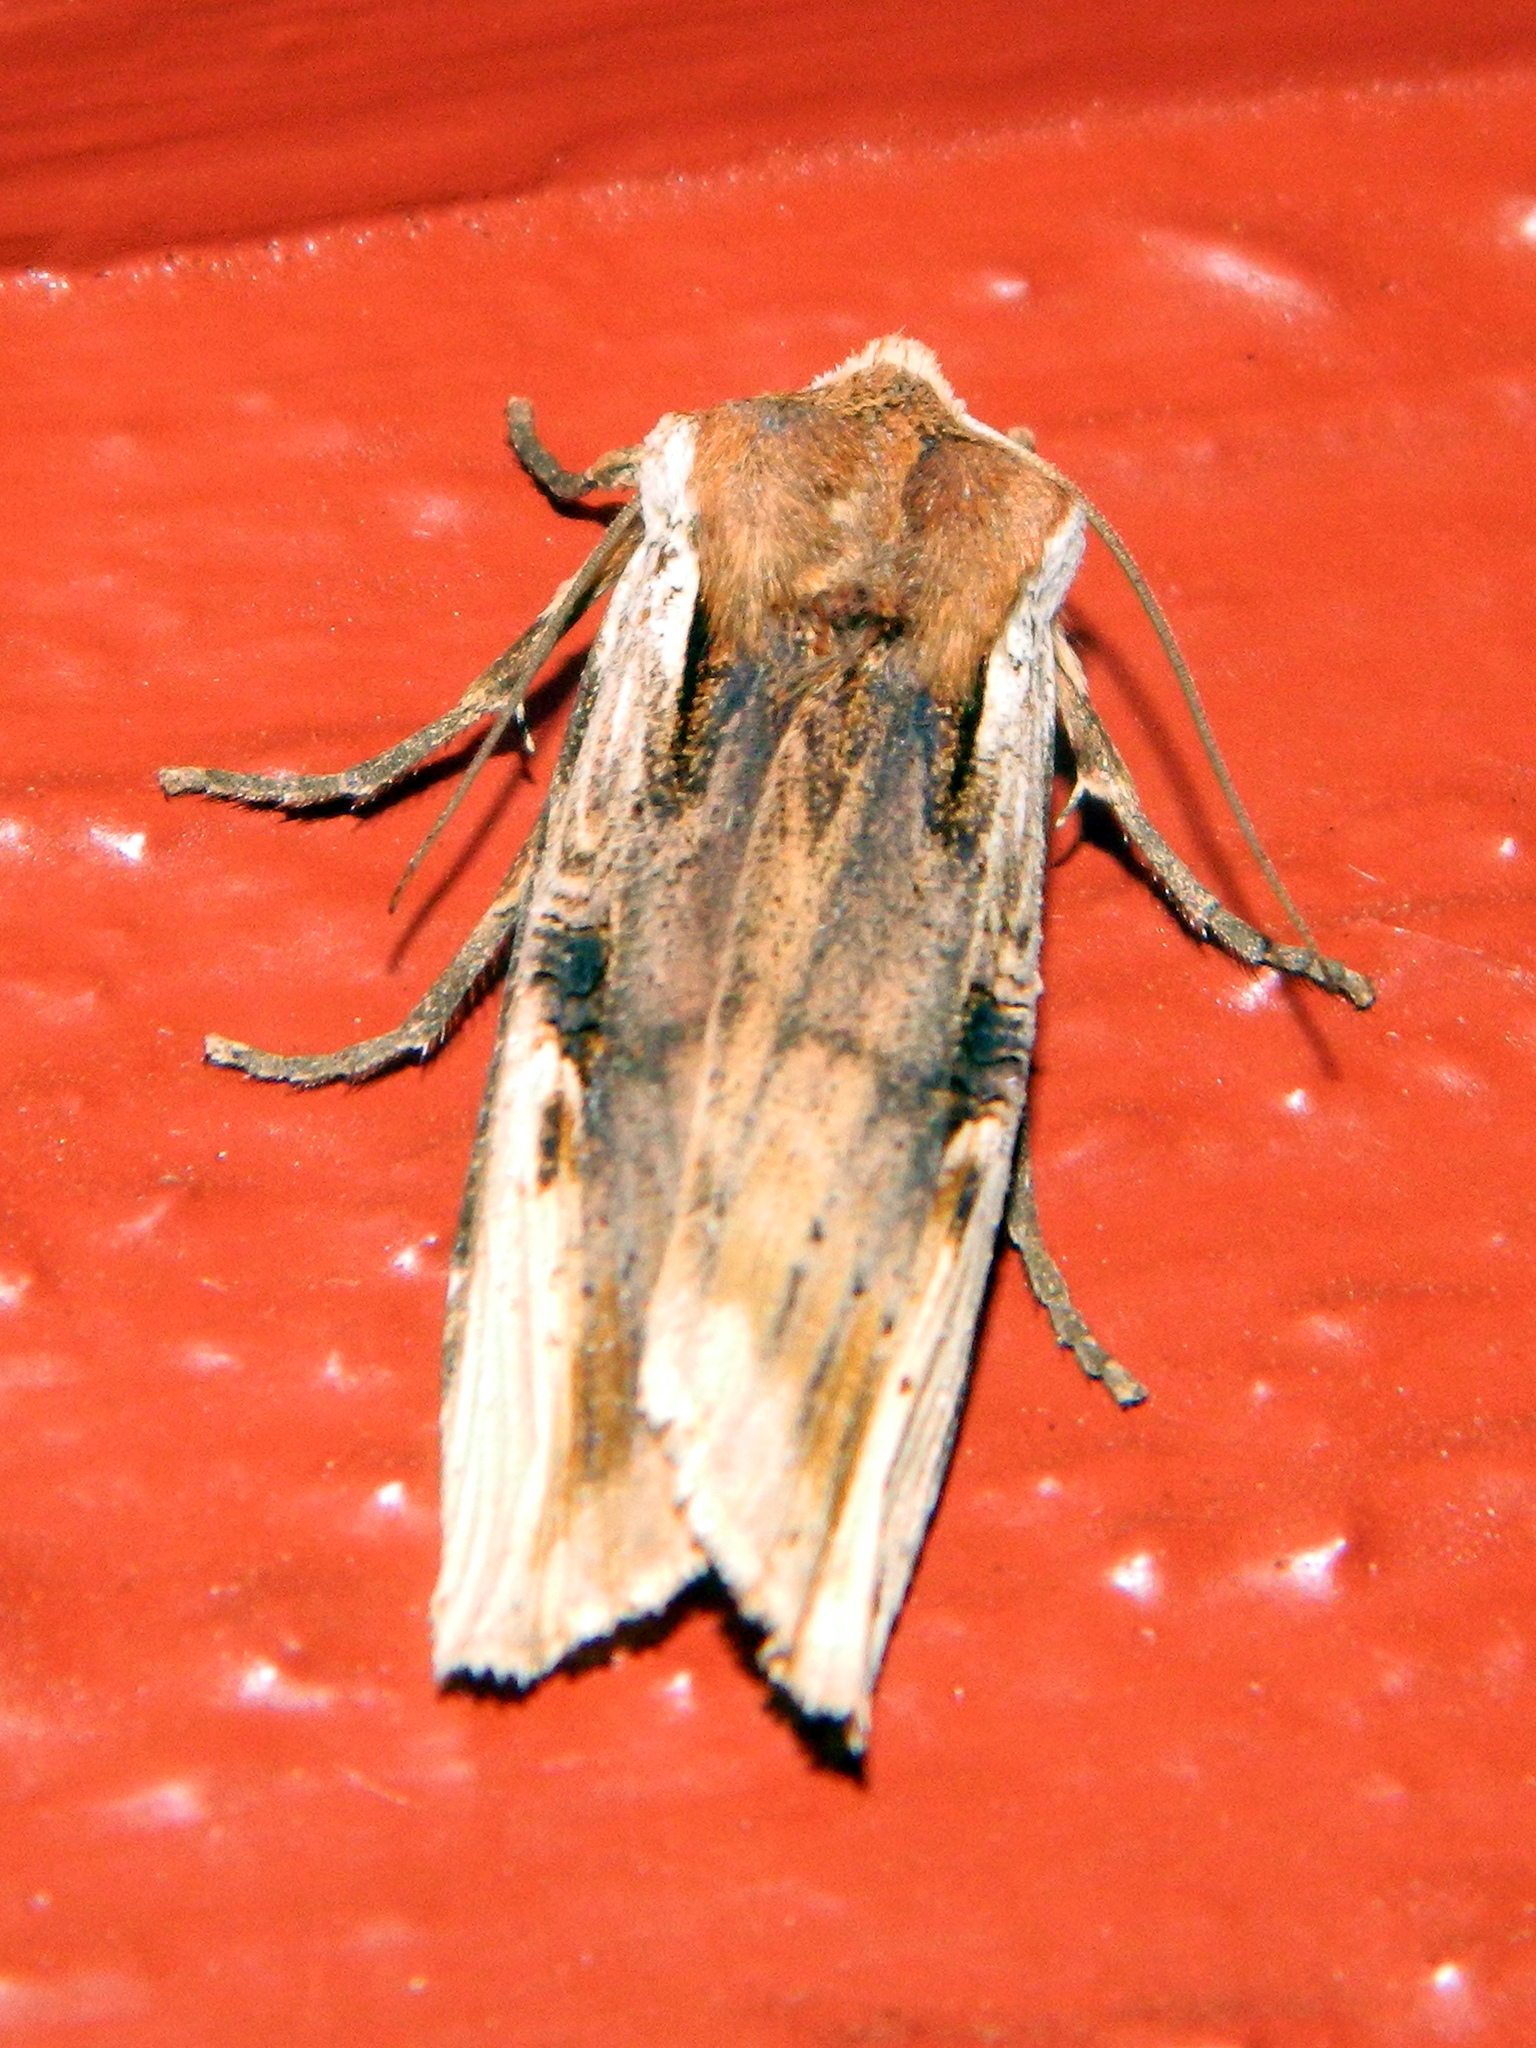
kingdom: Animalia
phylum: Arthropoda
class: Insecta
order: Lepidoptera
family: Noctuidae
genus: Xylena
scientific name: Xylena curvimacula
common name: Dot-and-dash swordgrass moth
